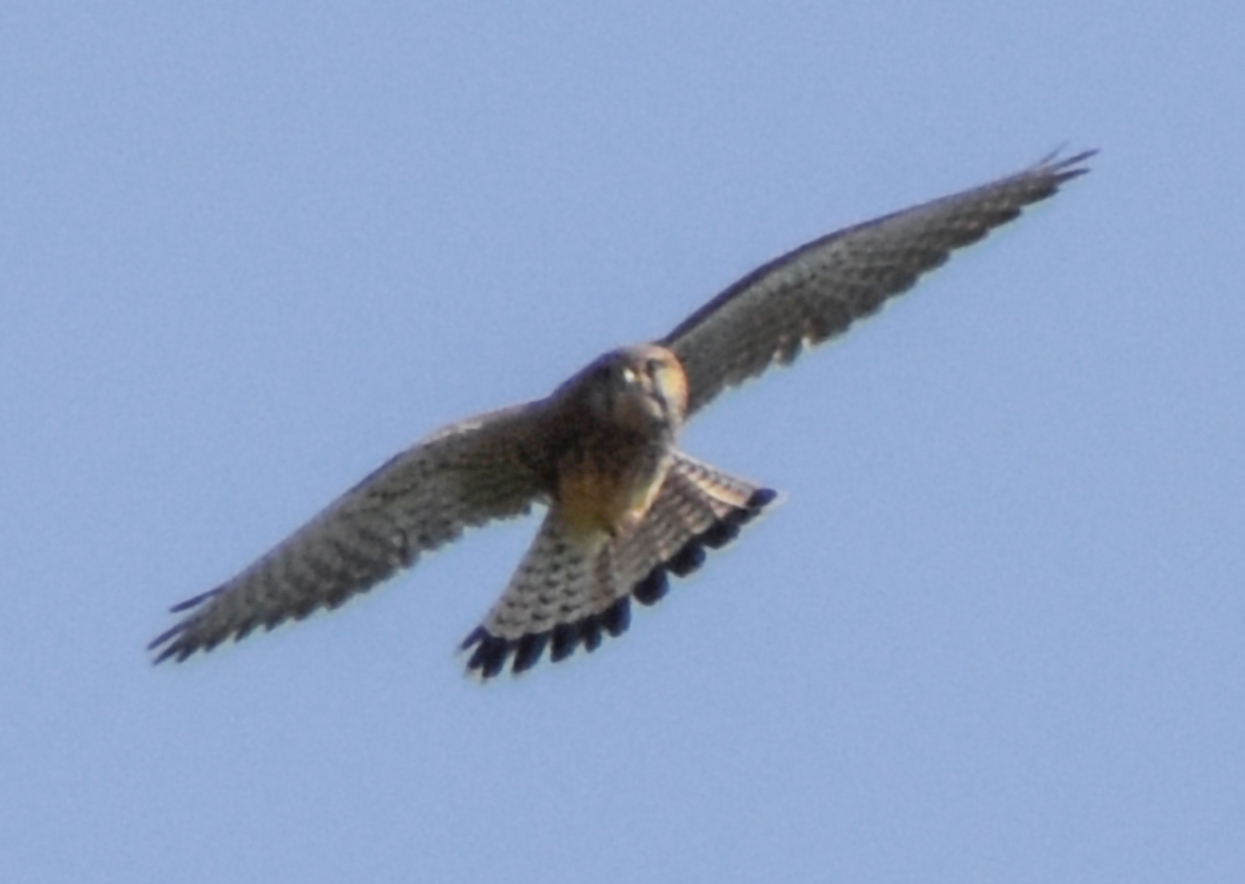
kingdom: Animalia
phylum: Chordata
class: Aves
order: Falconiformes
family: Falconidae
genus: Falco
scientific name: Falco tinnunculus
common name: Common kestrel
